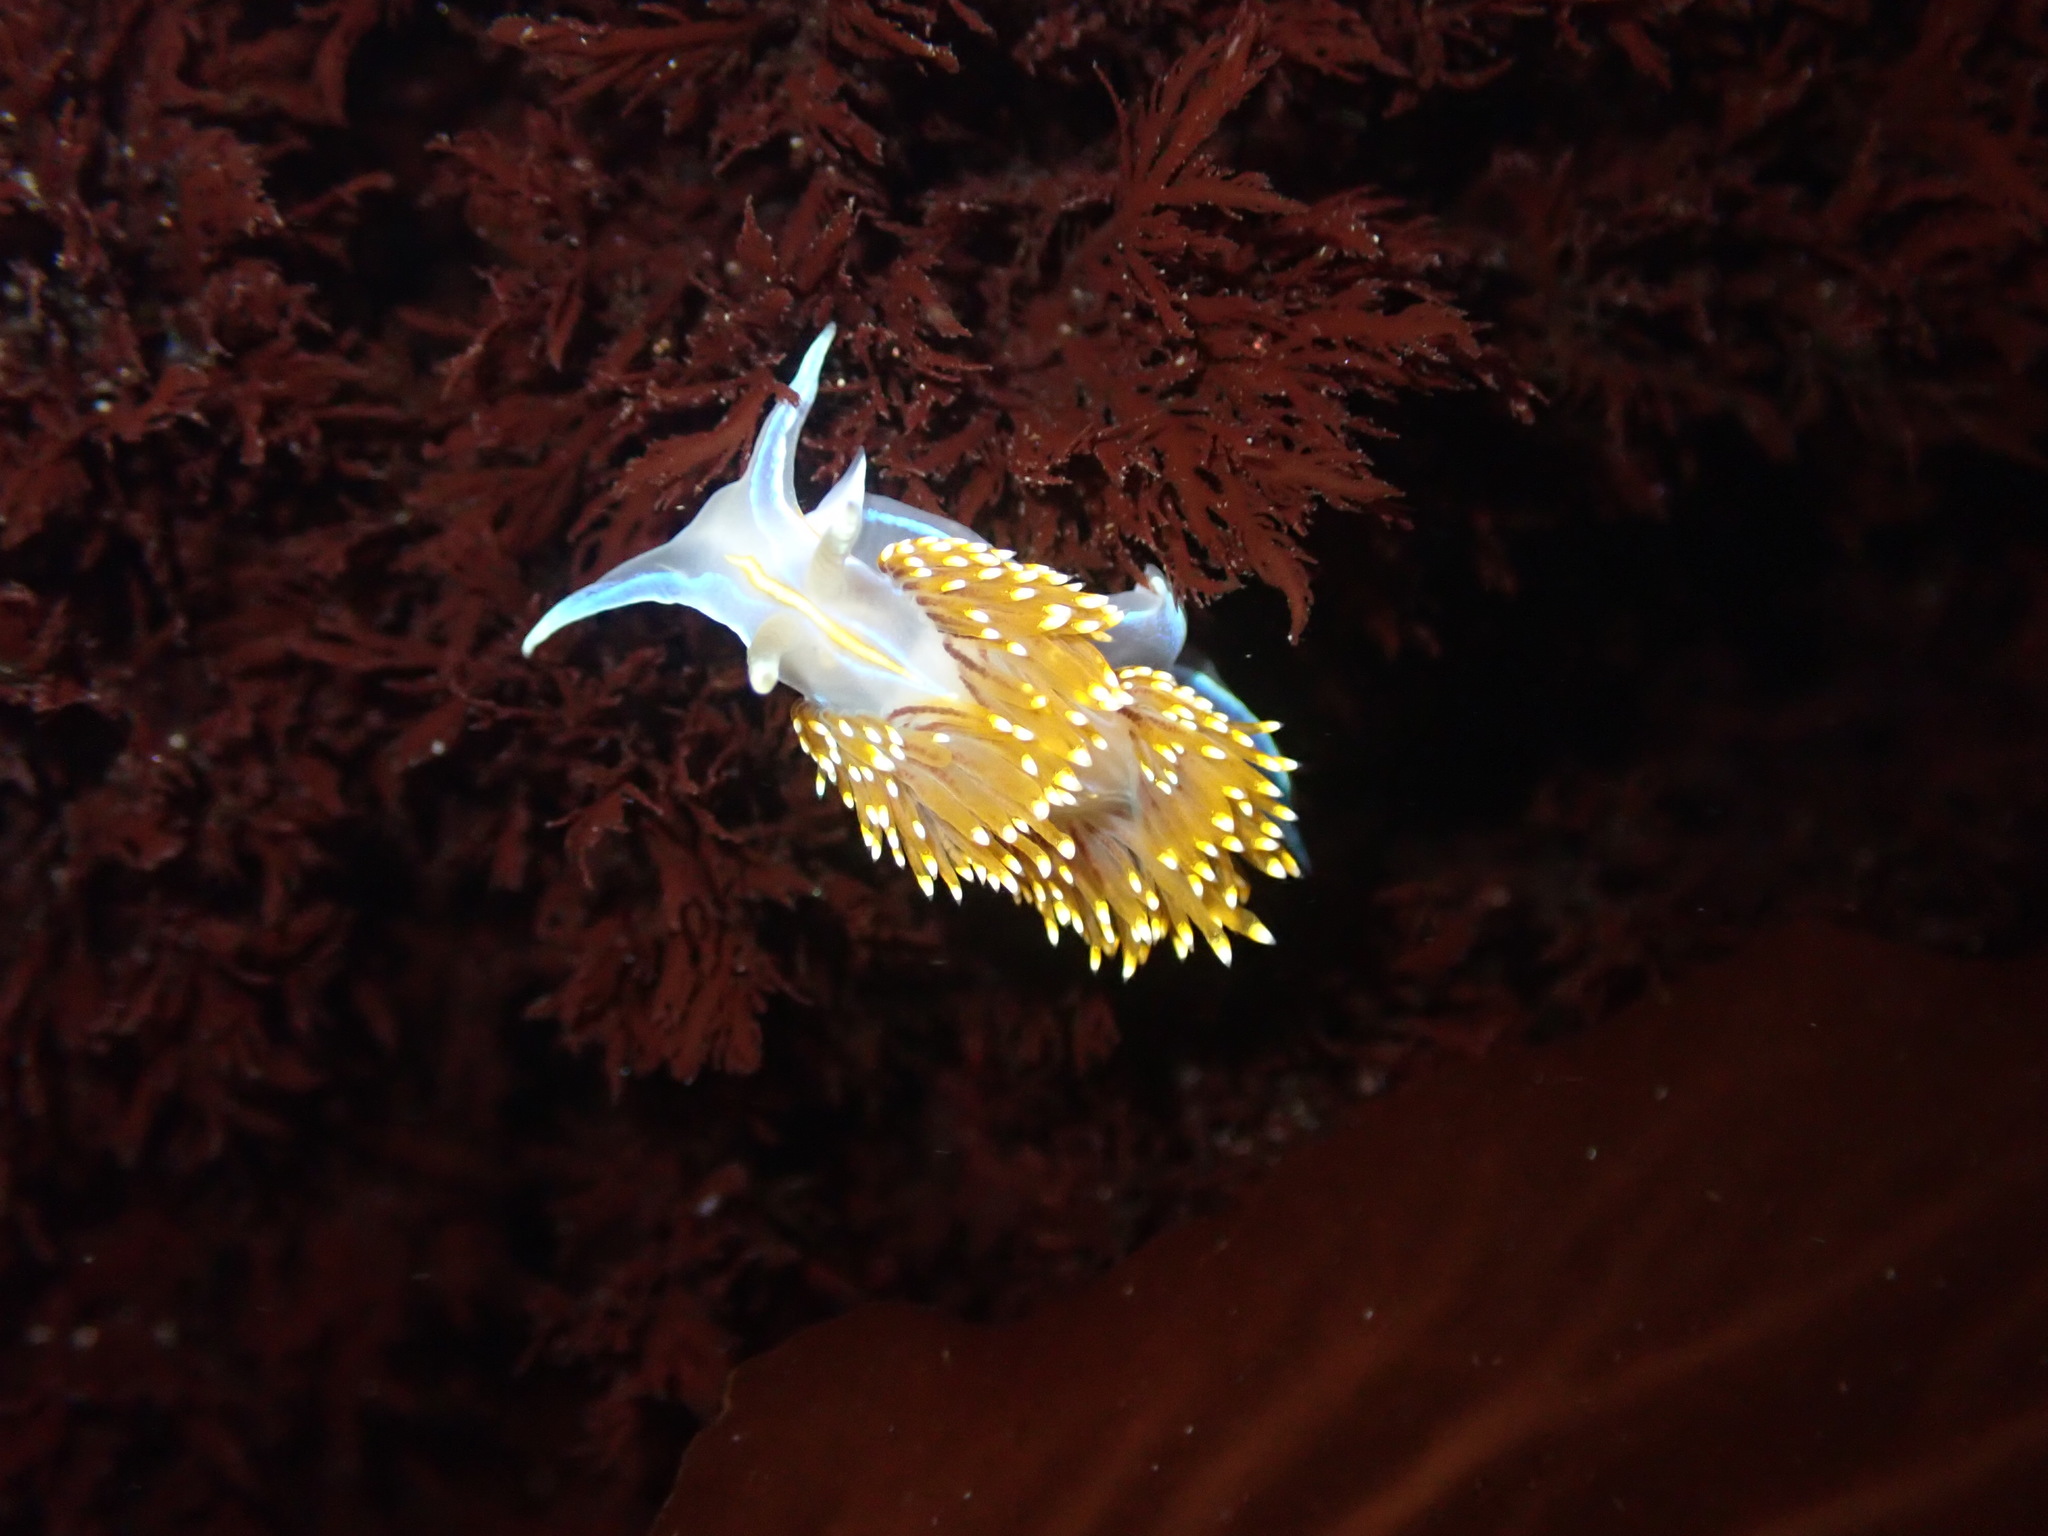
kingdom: Animalia
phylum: Mollusca
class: Gastropoda
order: Nudibranchia
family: Myrrhinidae
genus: Hermissenda
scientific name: Hermissenda opalescens
